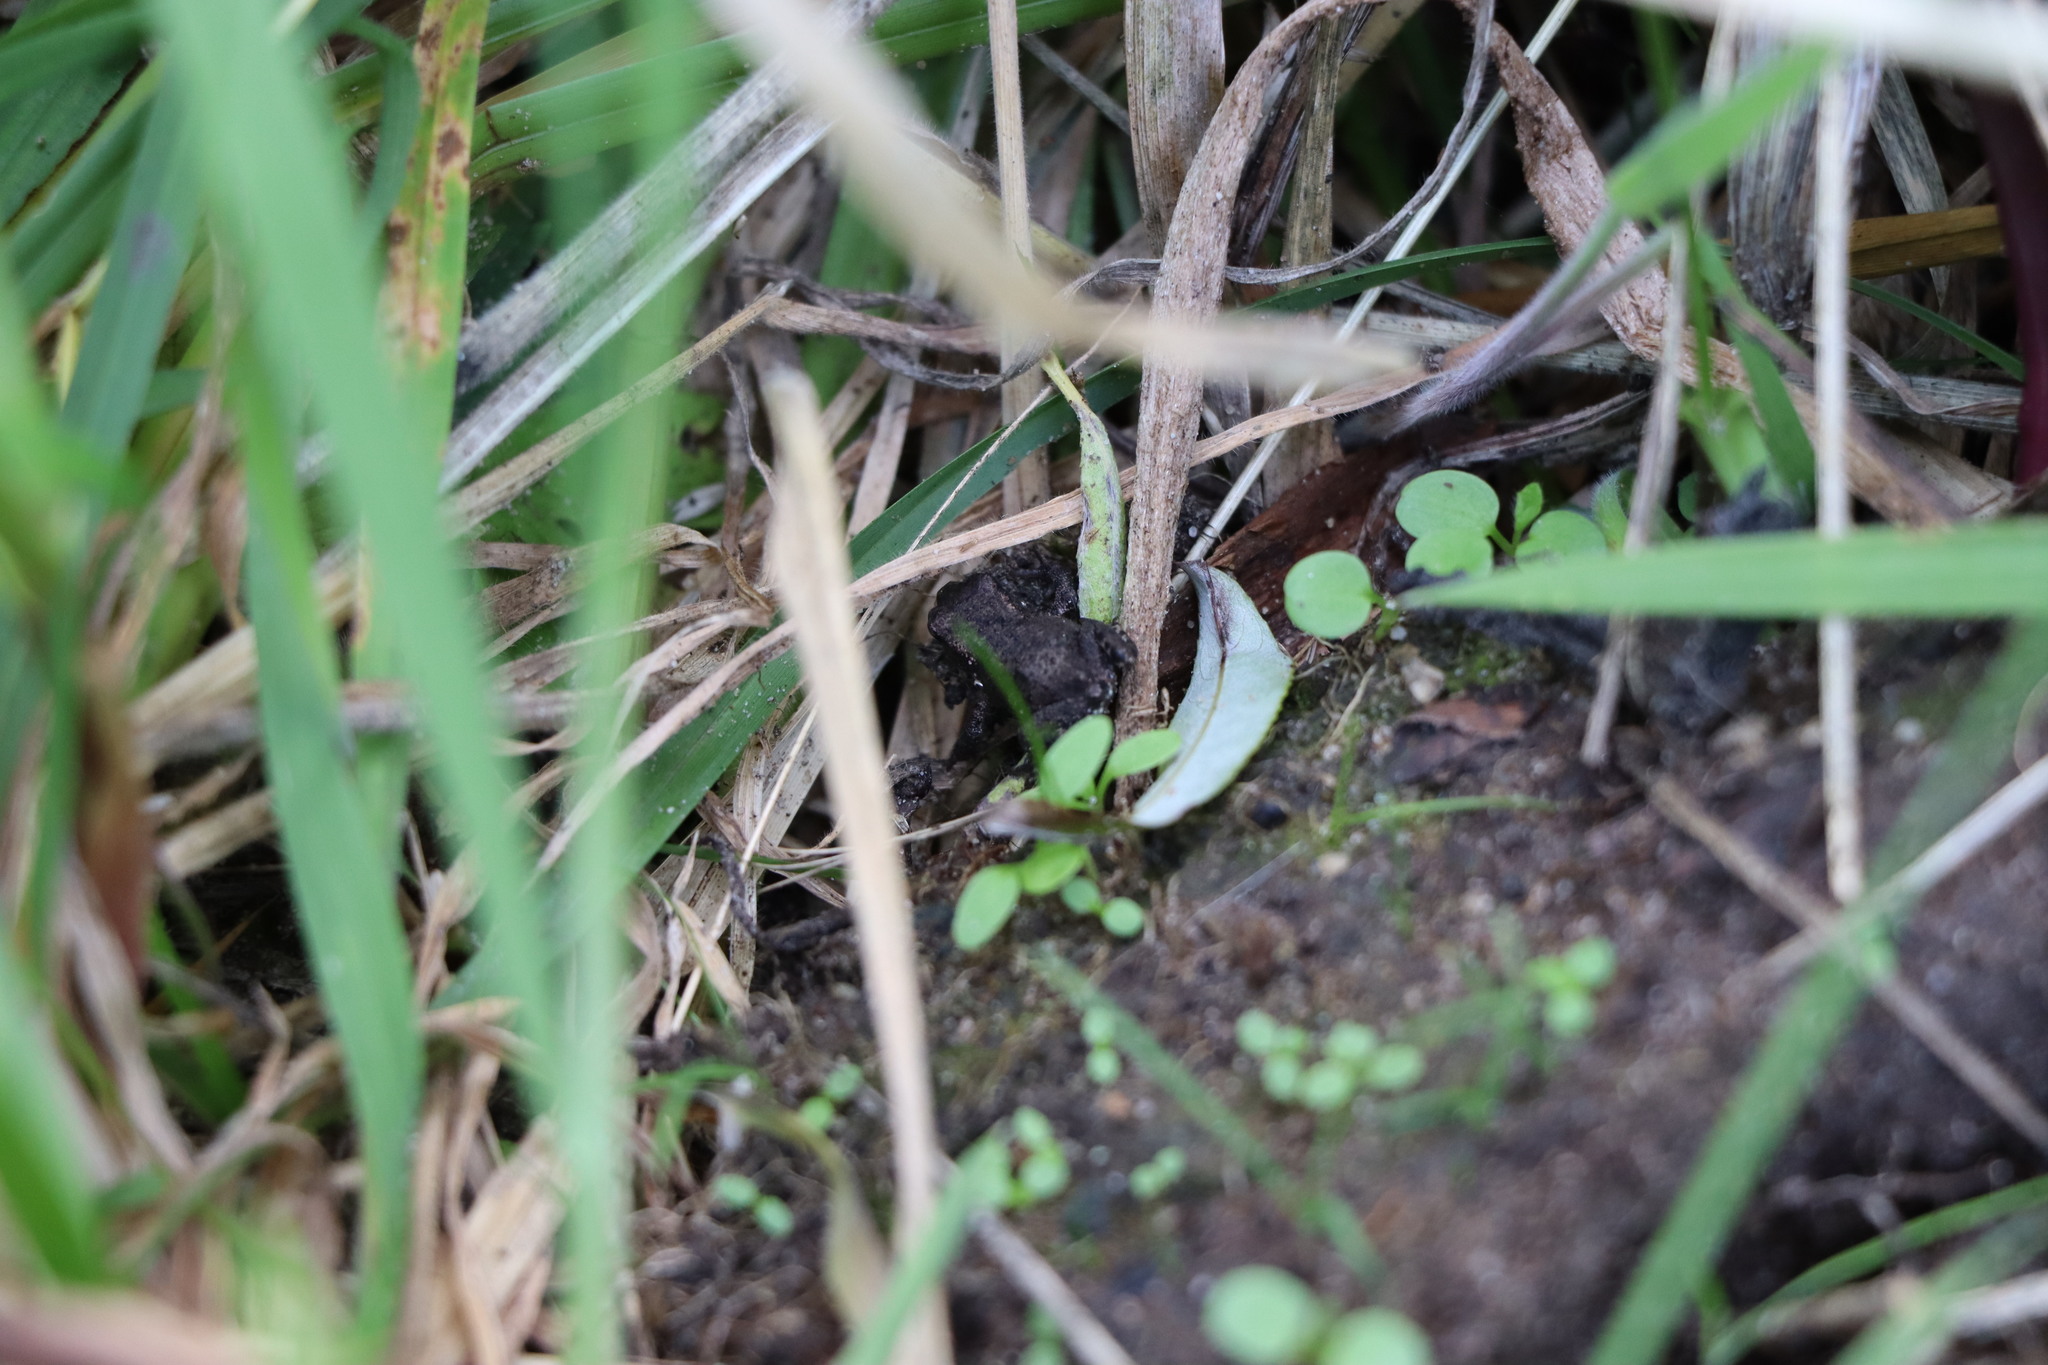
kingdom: Animalia
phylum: Chordata
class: Amphibia
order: Anura
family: Bufonidae
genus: Bufo
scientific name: Bufo bufo
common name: Common toad
